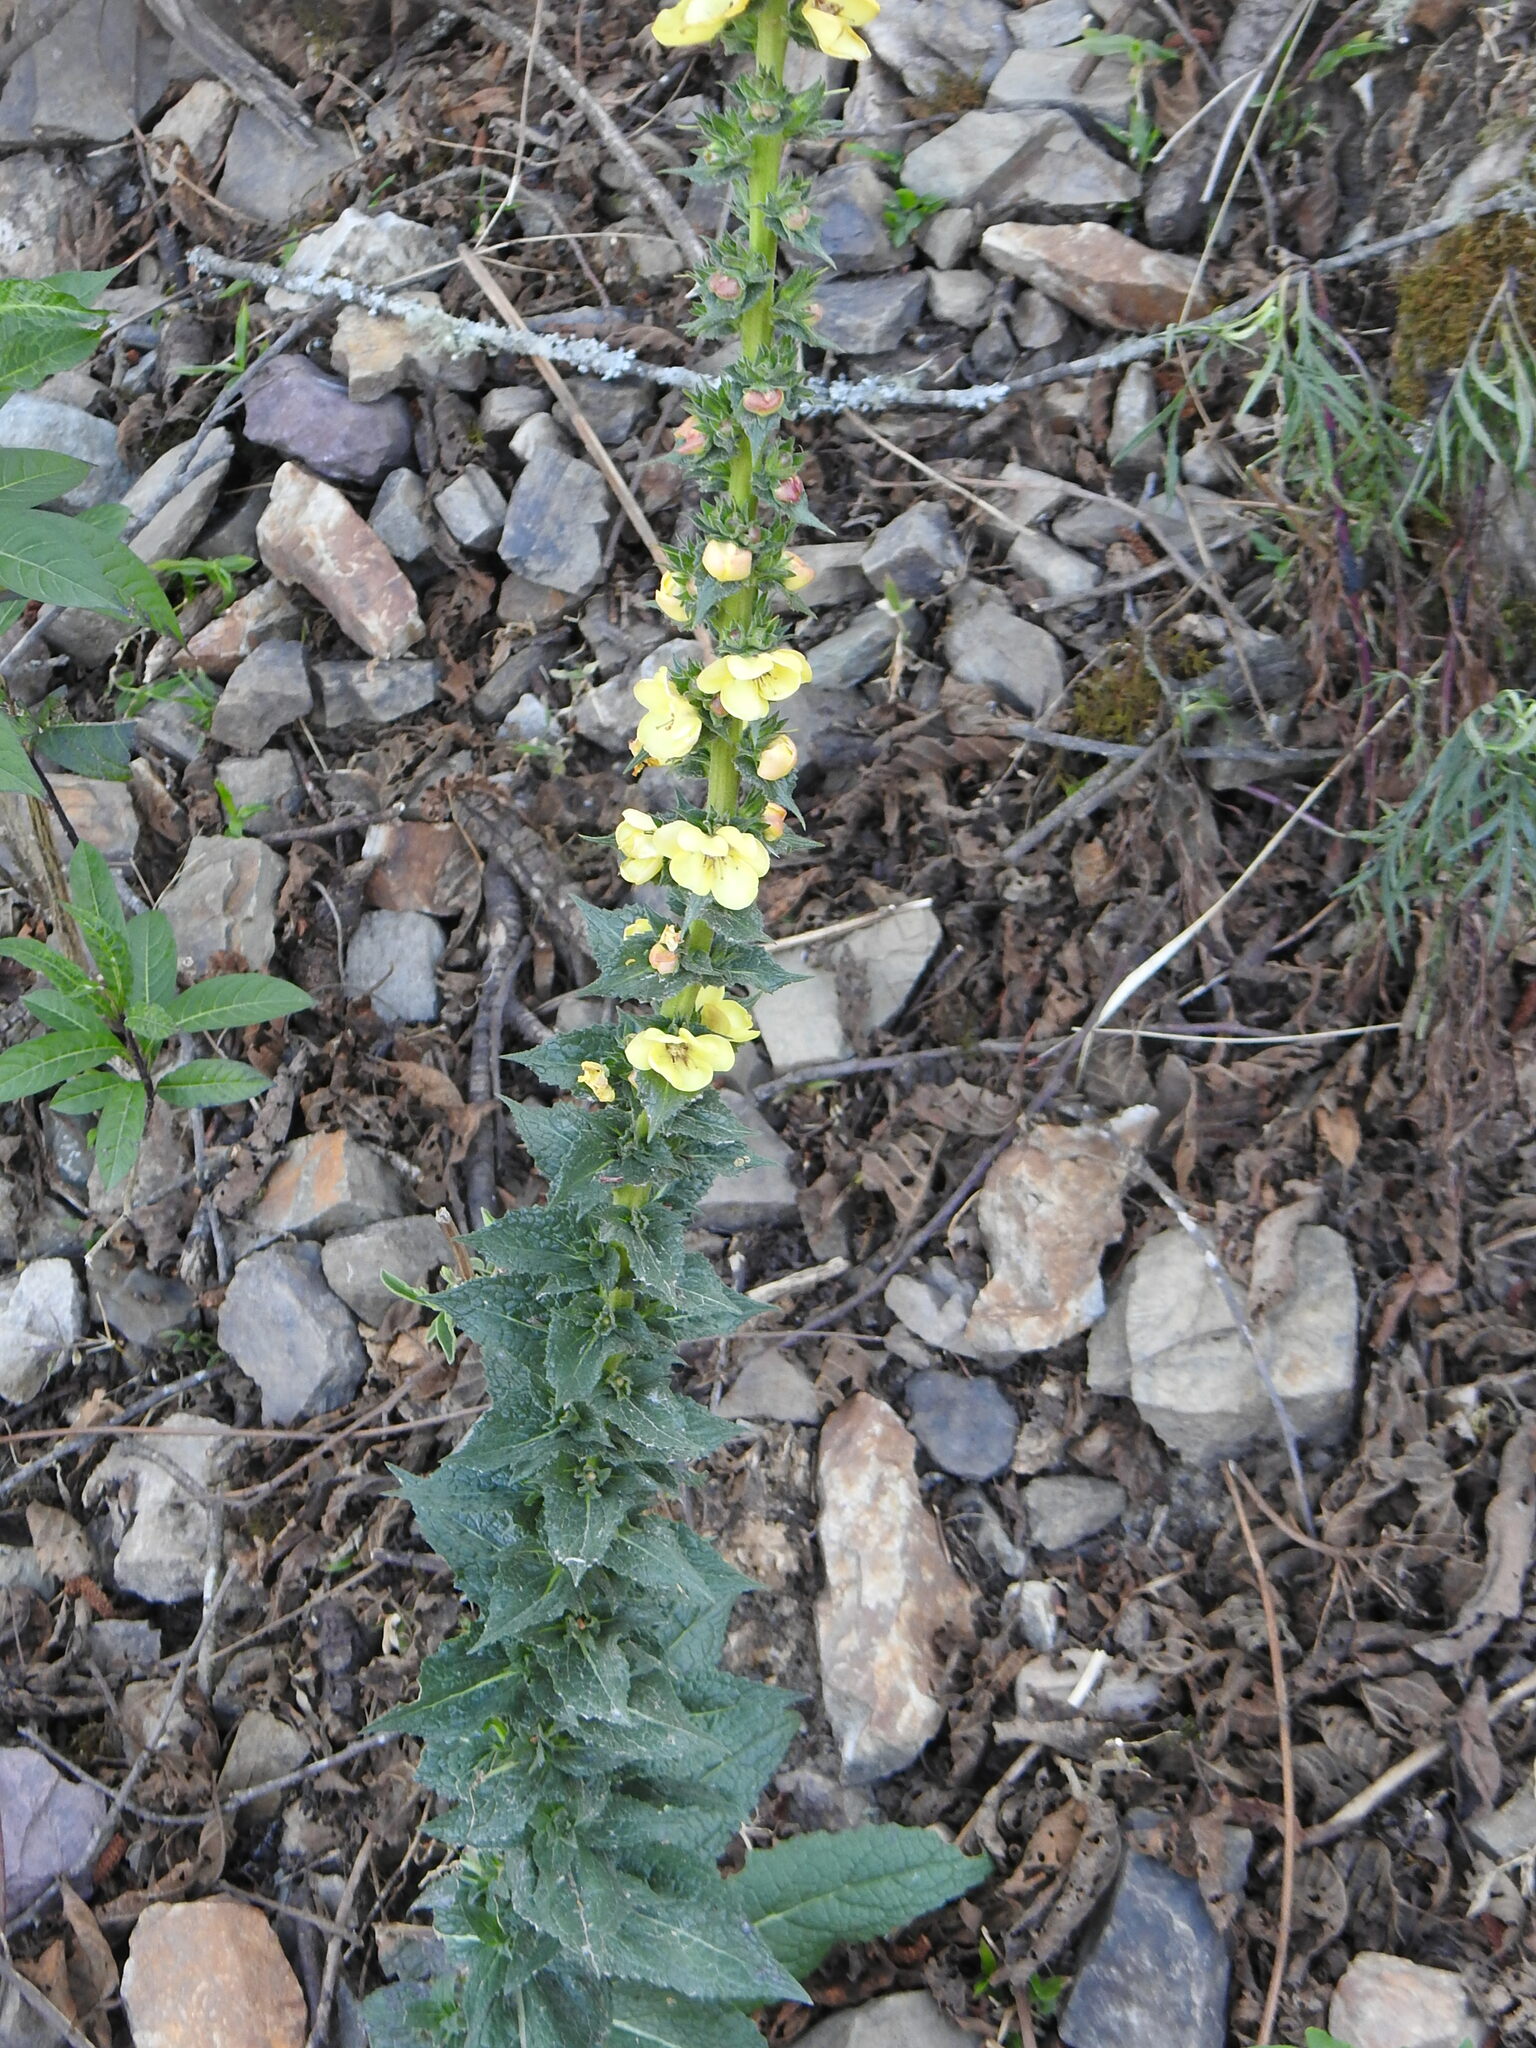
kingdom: Plantae
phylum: Tracheophyta
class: Magnoliopsida
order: Lamiales
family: Scrophulariaceae
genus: Verbascum
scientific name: Verbascum virgatum
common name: Twiggy mullein
